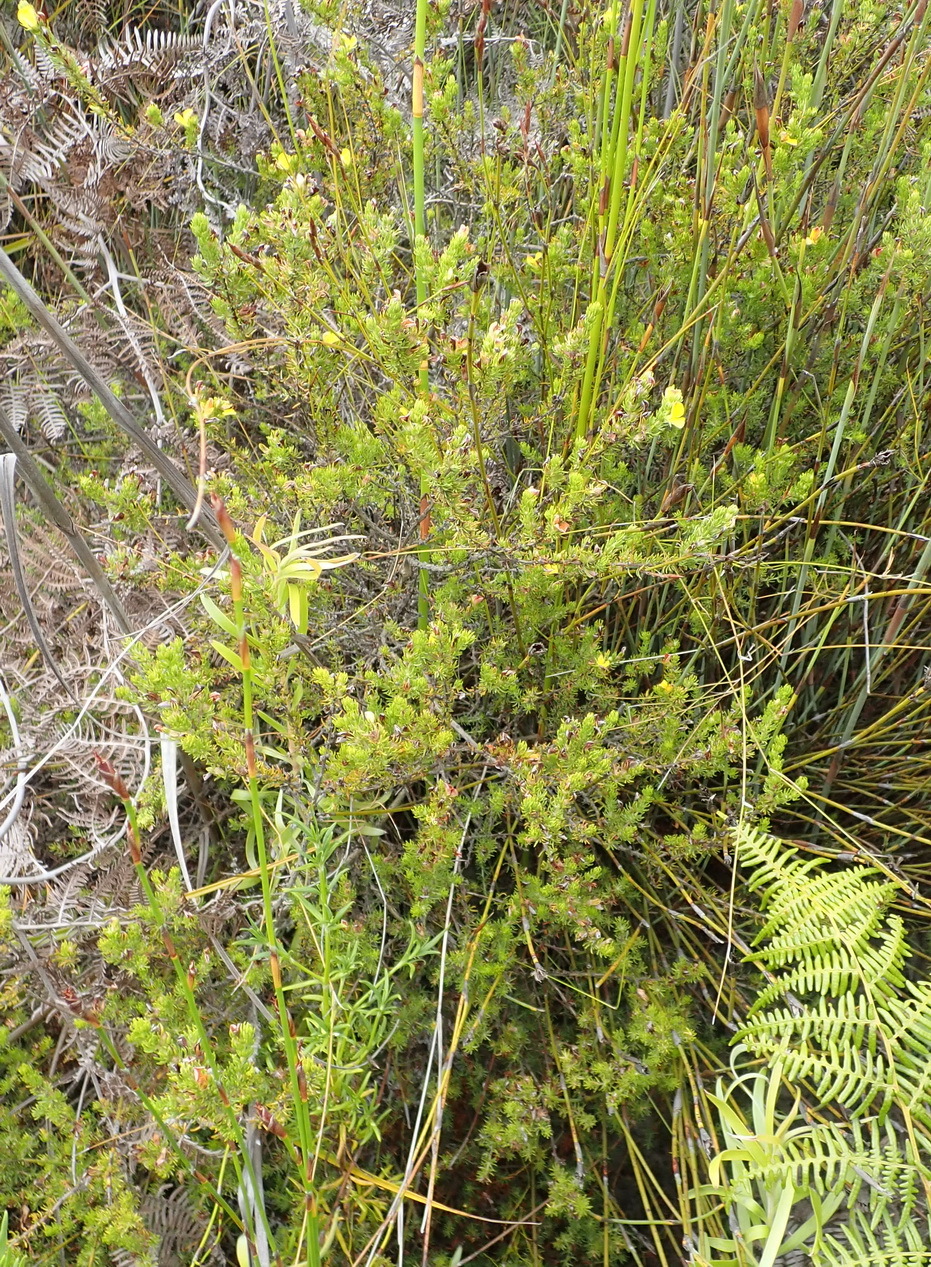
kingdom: Plantae
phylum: Tracheophyta
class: Magnoliopsida
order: Fabales
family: Fabaceae
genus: Aspalathus
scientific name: Aspalathus opaca
